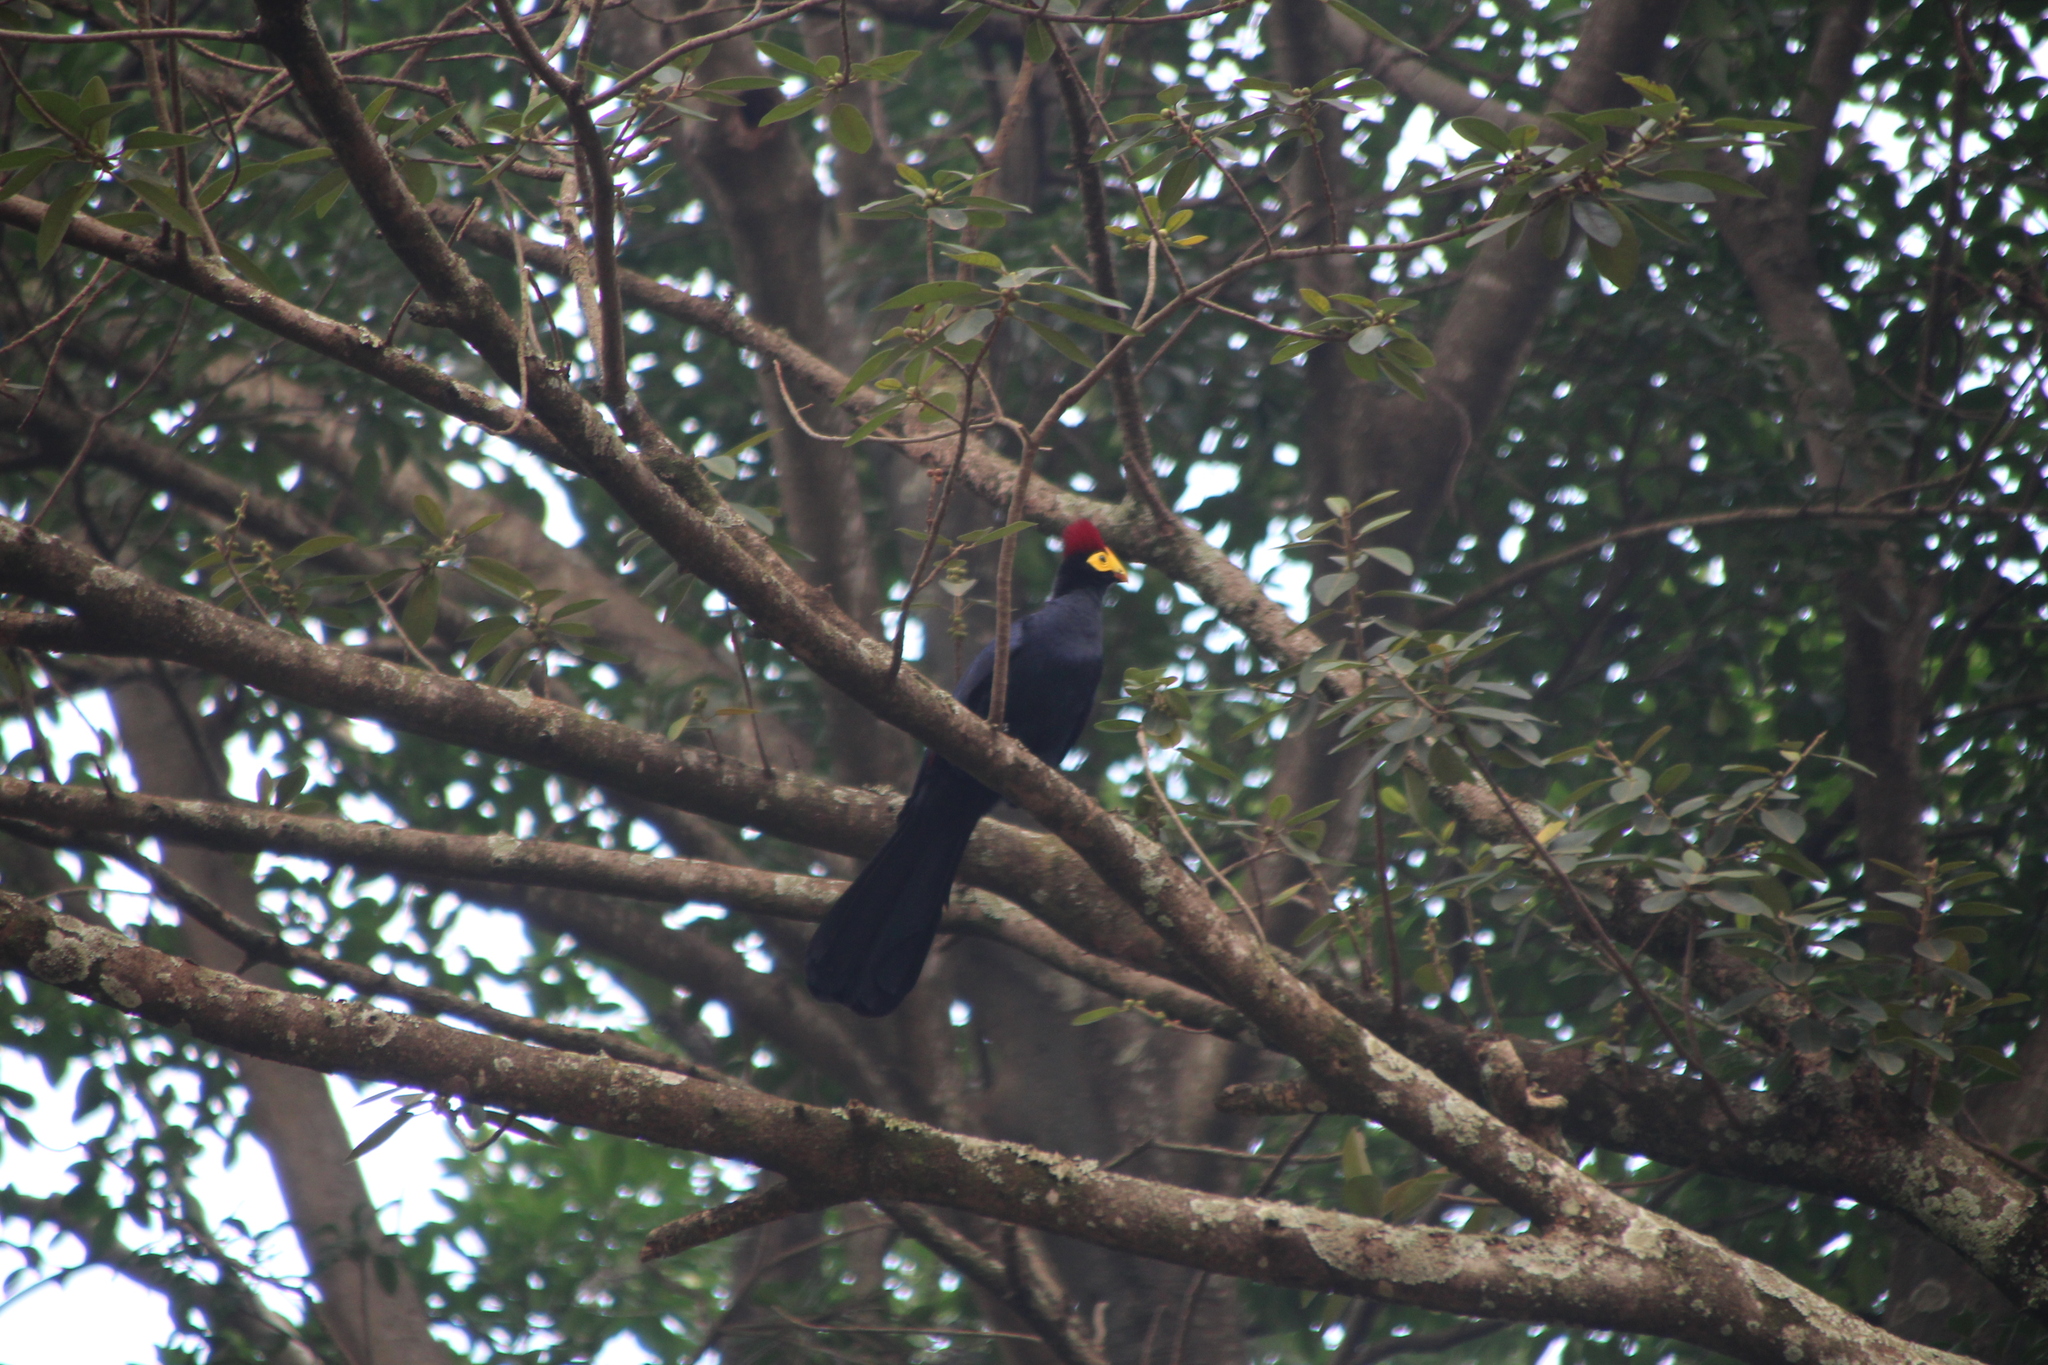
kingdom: Animalia
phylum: Chordata
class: Aves
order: Musophagiformes
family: Musophagidae
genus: Musophaga
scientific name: Musophaga rossae
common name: Ross's turaco
